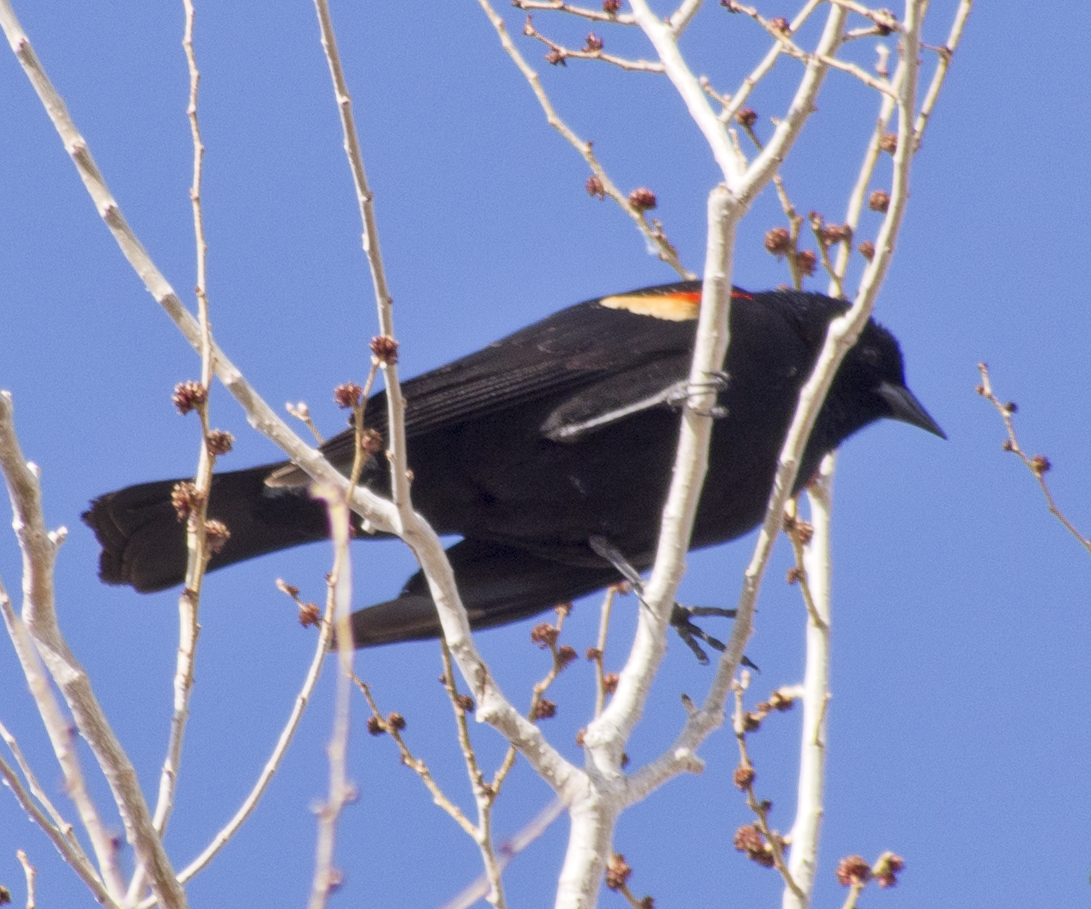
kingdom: Animalia
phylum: Chordata
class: Aves
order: Passeriformes
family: Icteridae
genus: Agelaius
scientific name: Agelaius phoeniceus
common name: Red-winged blackbird
